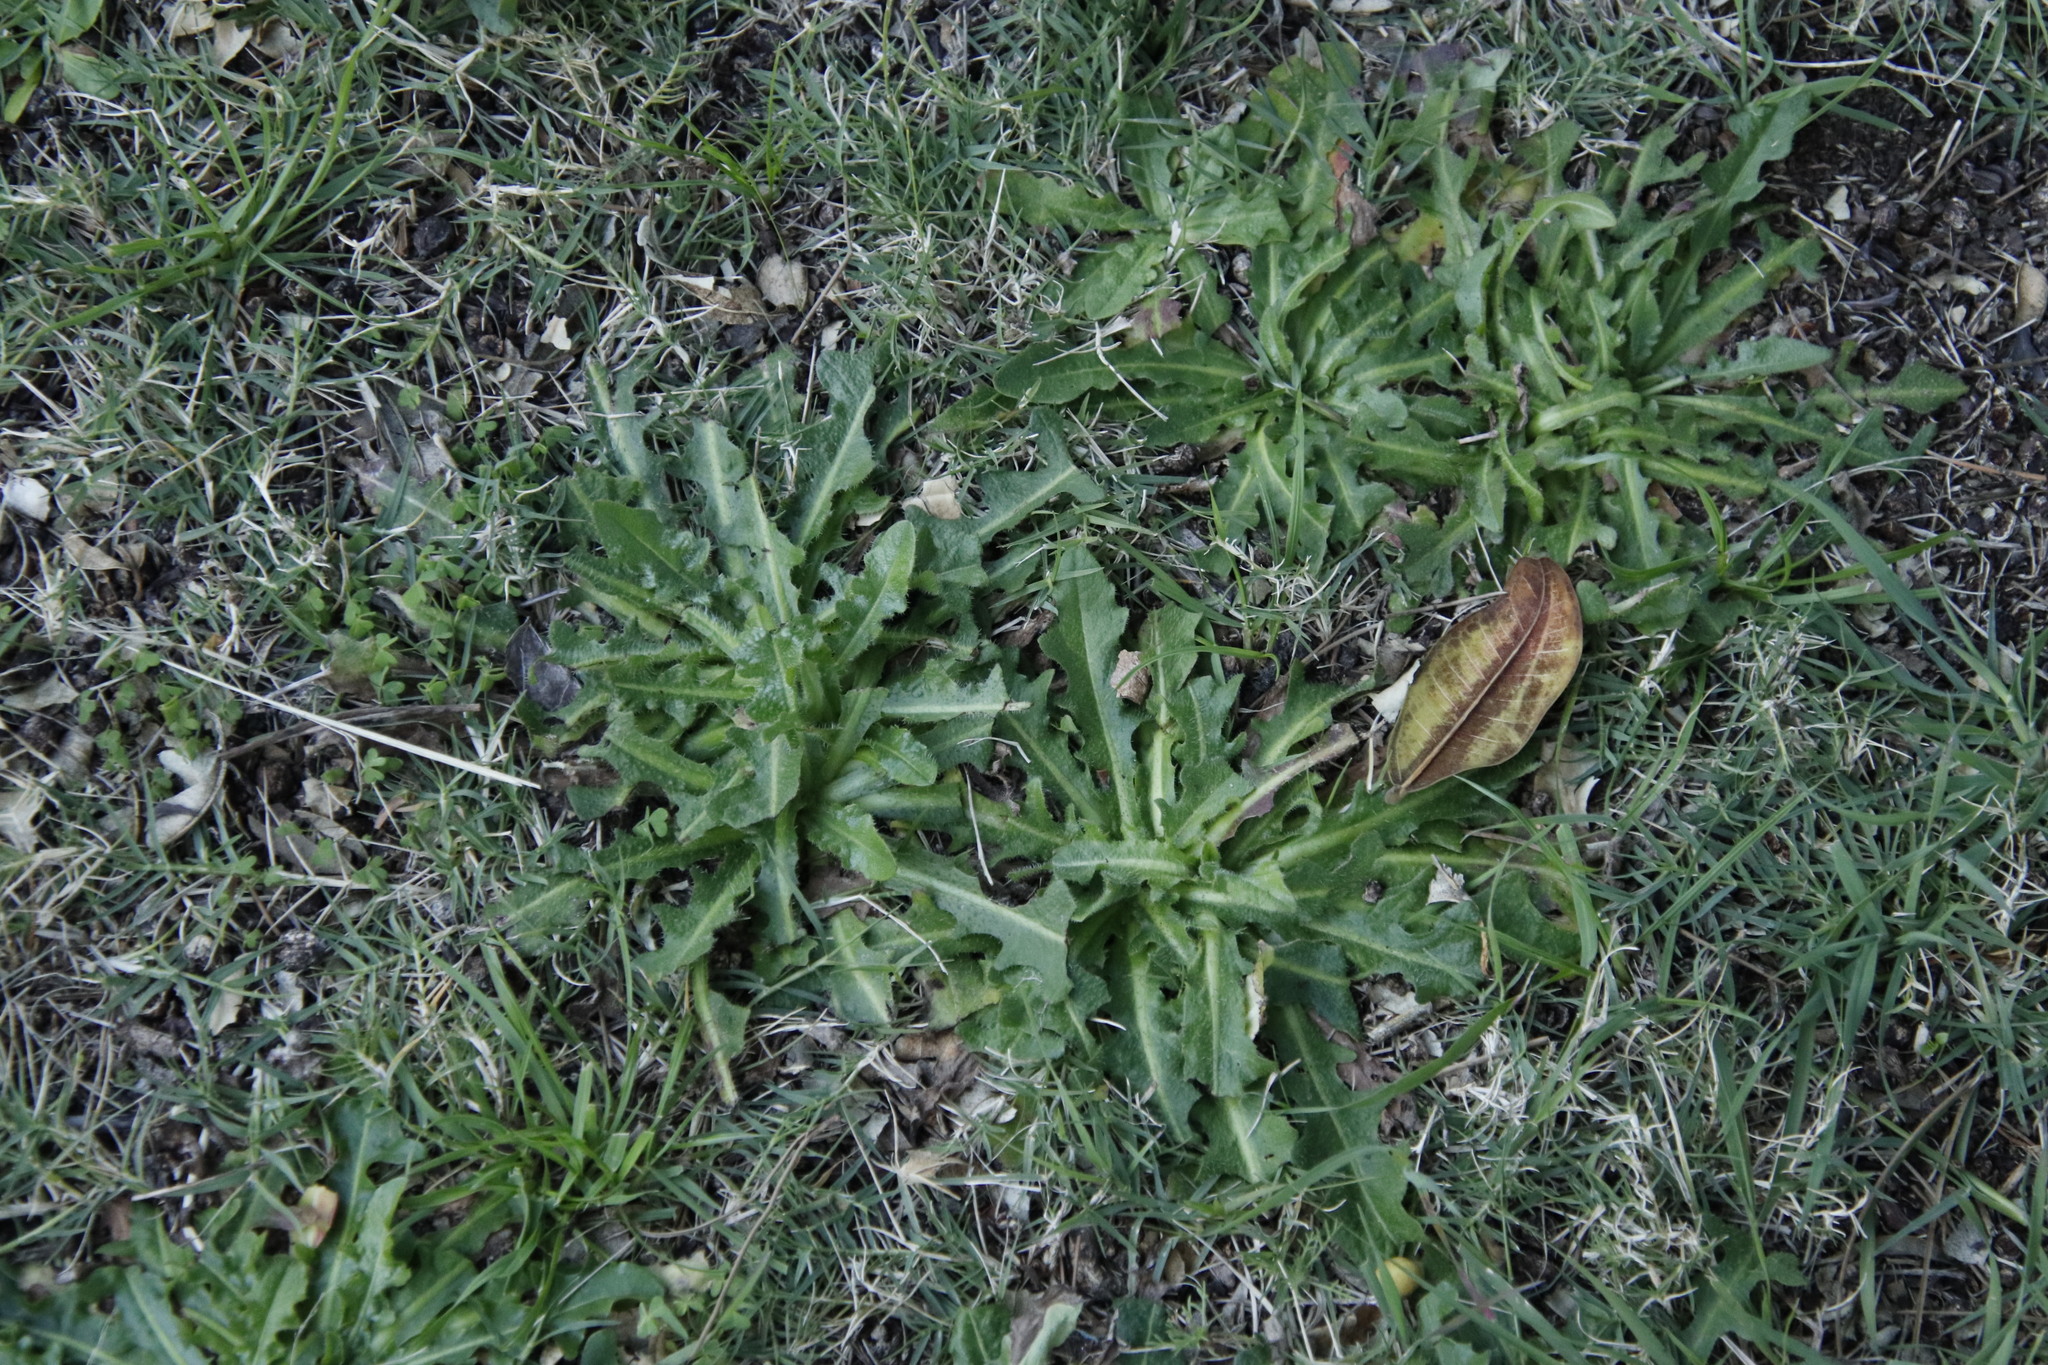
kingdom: Plantae
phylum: Tracheophyta
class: Magnoliopsida
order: Asterales
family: Asteraceae
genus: Hypochaeris
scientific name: Hypochaeris radicata
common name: Flatweed
